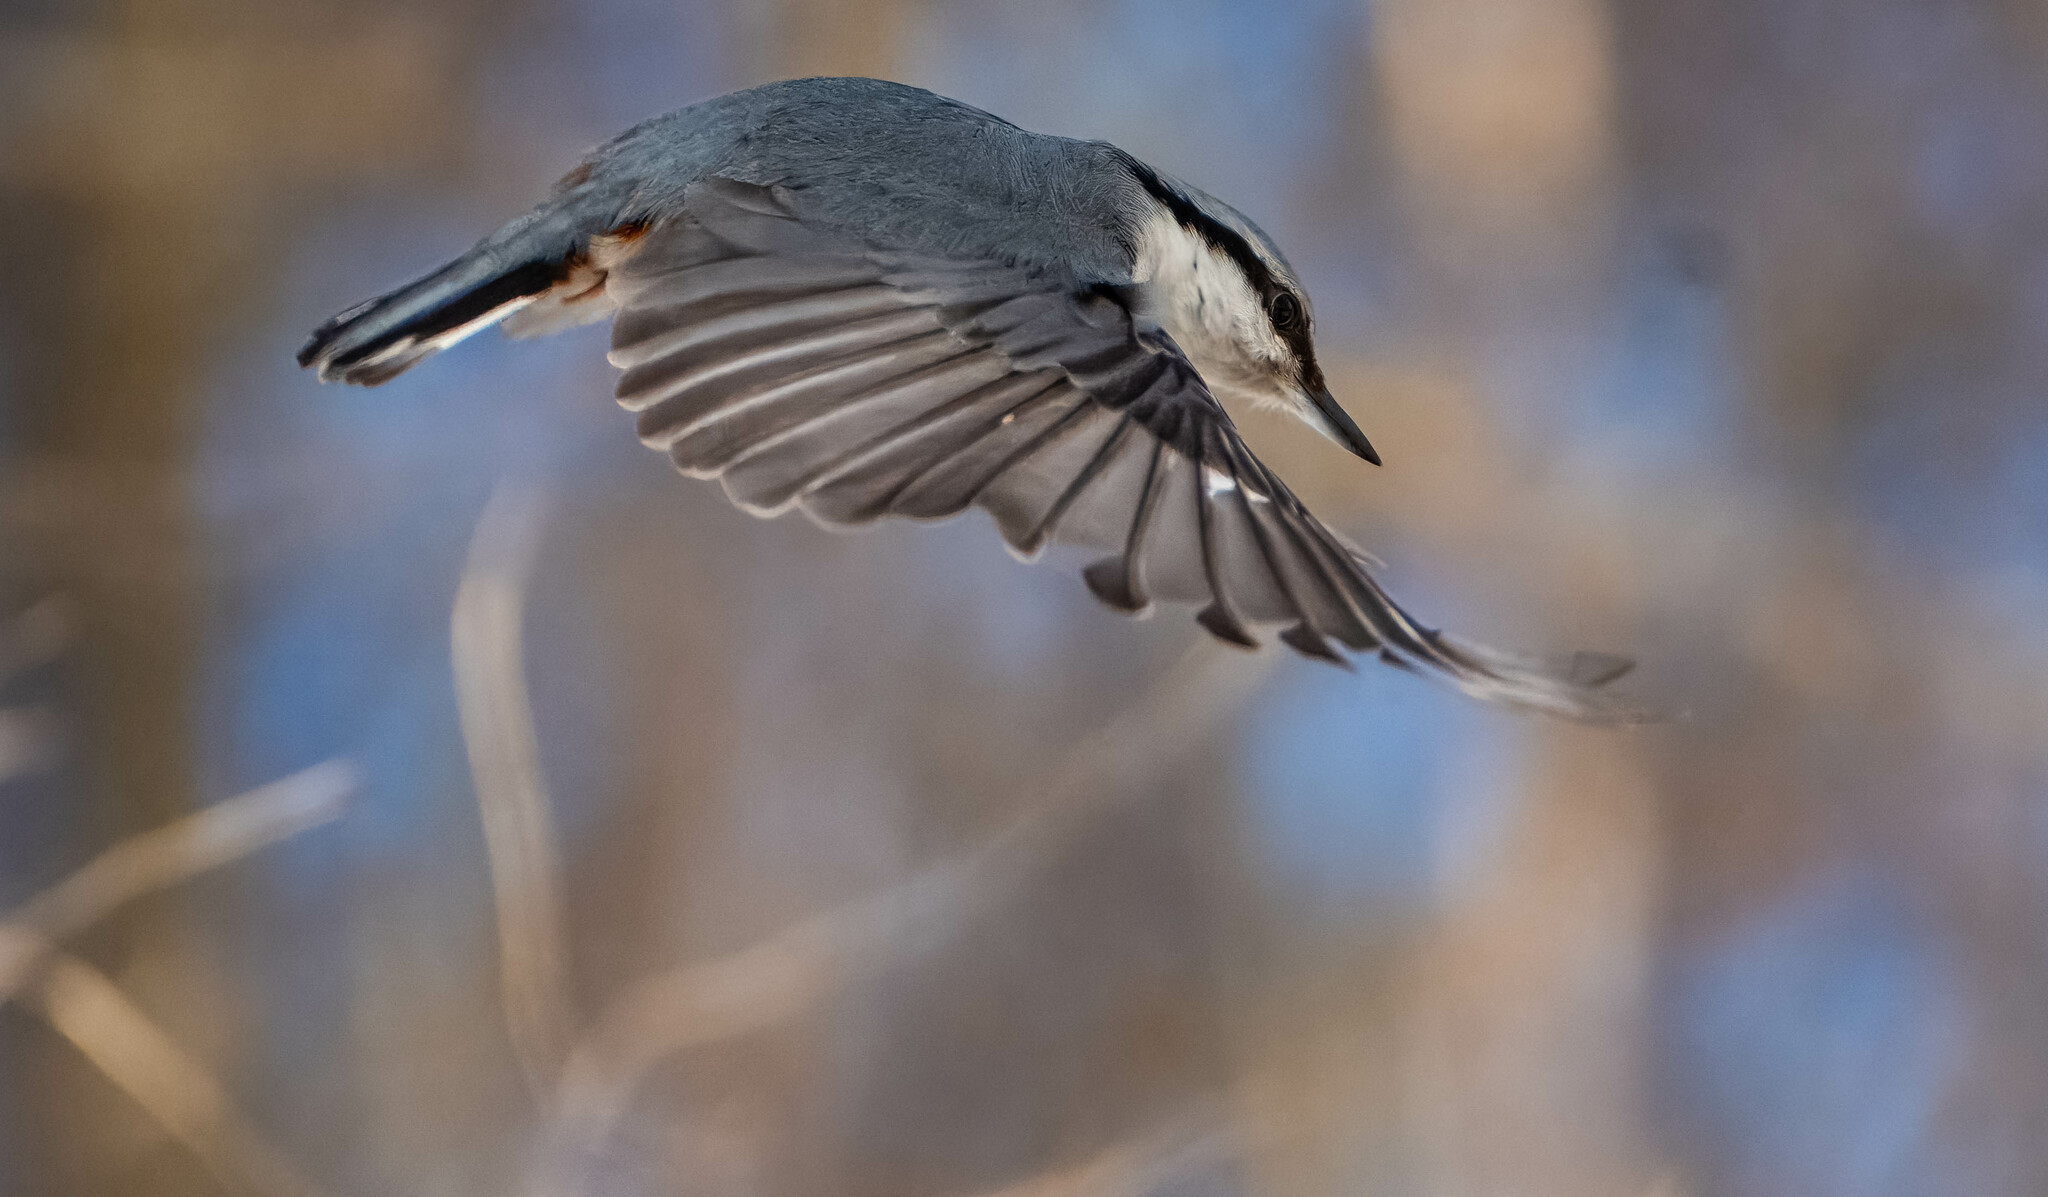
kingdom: Animalia
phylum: Chordata
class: Aves
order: Passeriformes
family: Sittidae
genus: Sitta
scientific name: Sitta europaea
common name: Eurasian nuthatch
